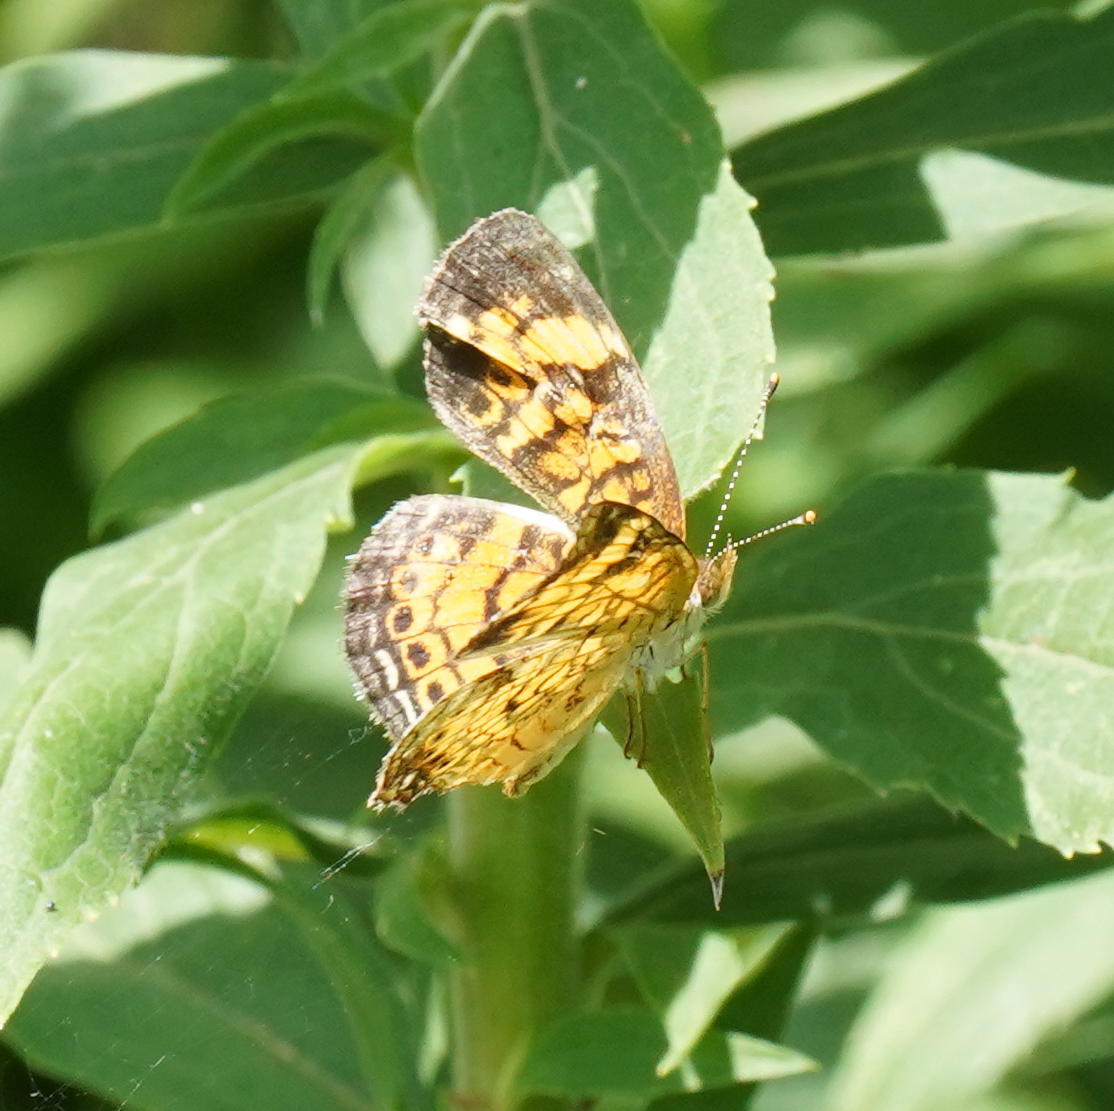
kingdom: Animalia
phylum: Arthropoda
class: Insecta
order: Lepidoptera
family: Nymphalidae
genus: Phyciodes
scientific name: Phyciodes tharos
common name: Pearl crescent
